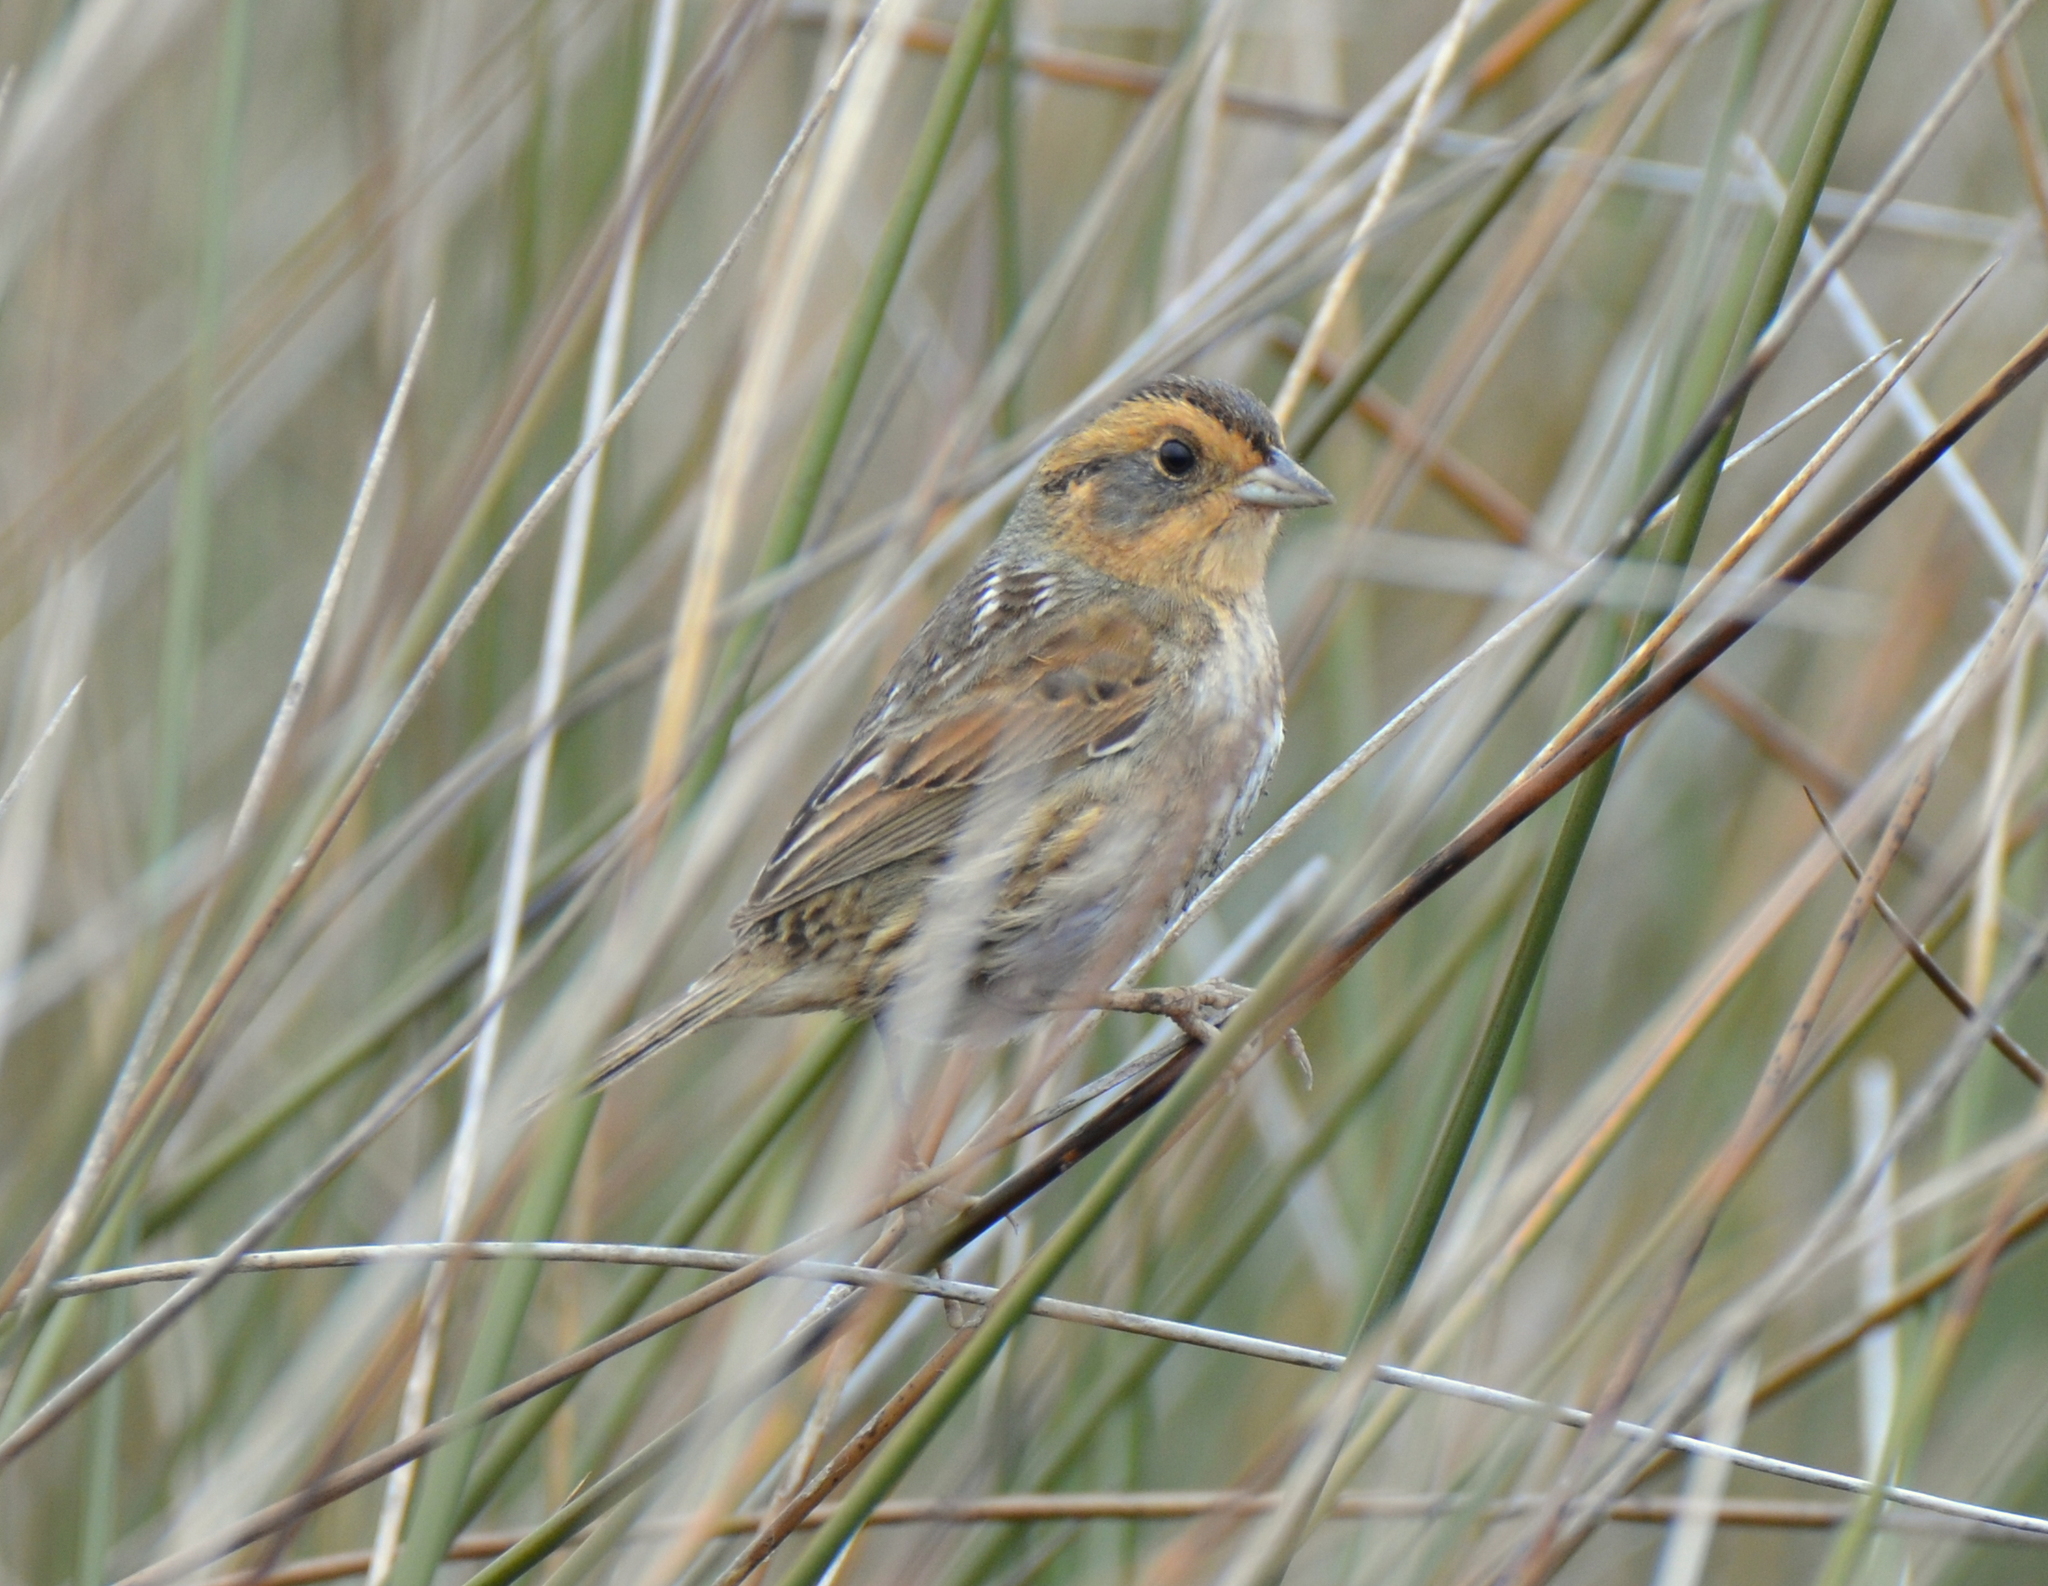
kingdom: Animalia
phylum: Chordata
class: Aves
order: Passeriformes
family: Passerellidae
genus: Ammospiza
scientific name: Ammospiza nelsoni
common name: Nelson's sparrow
